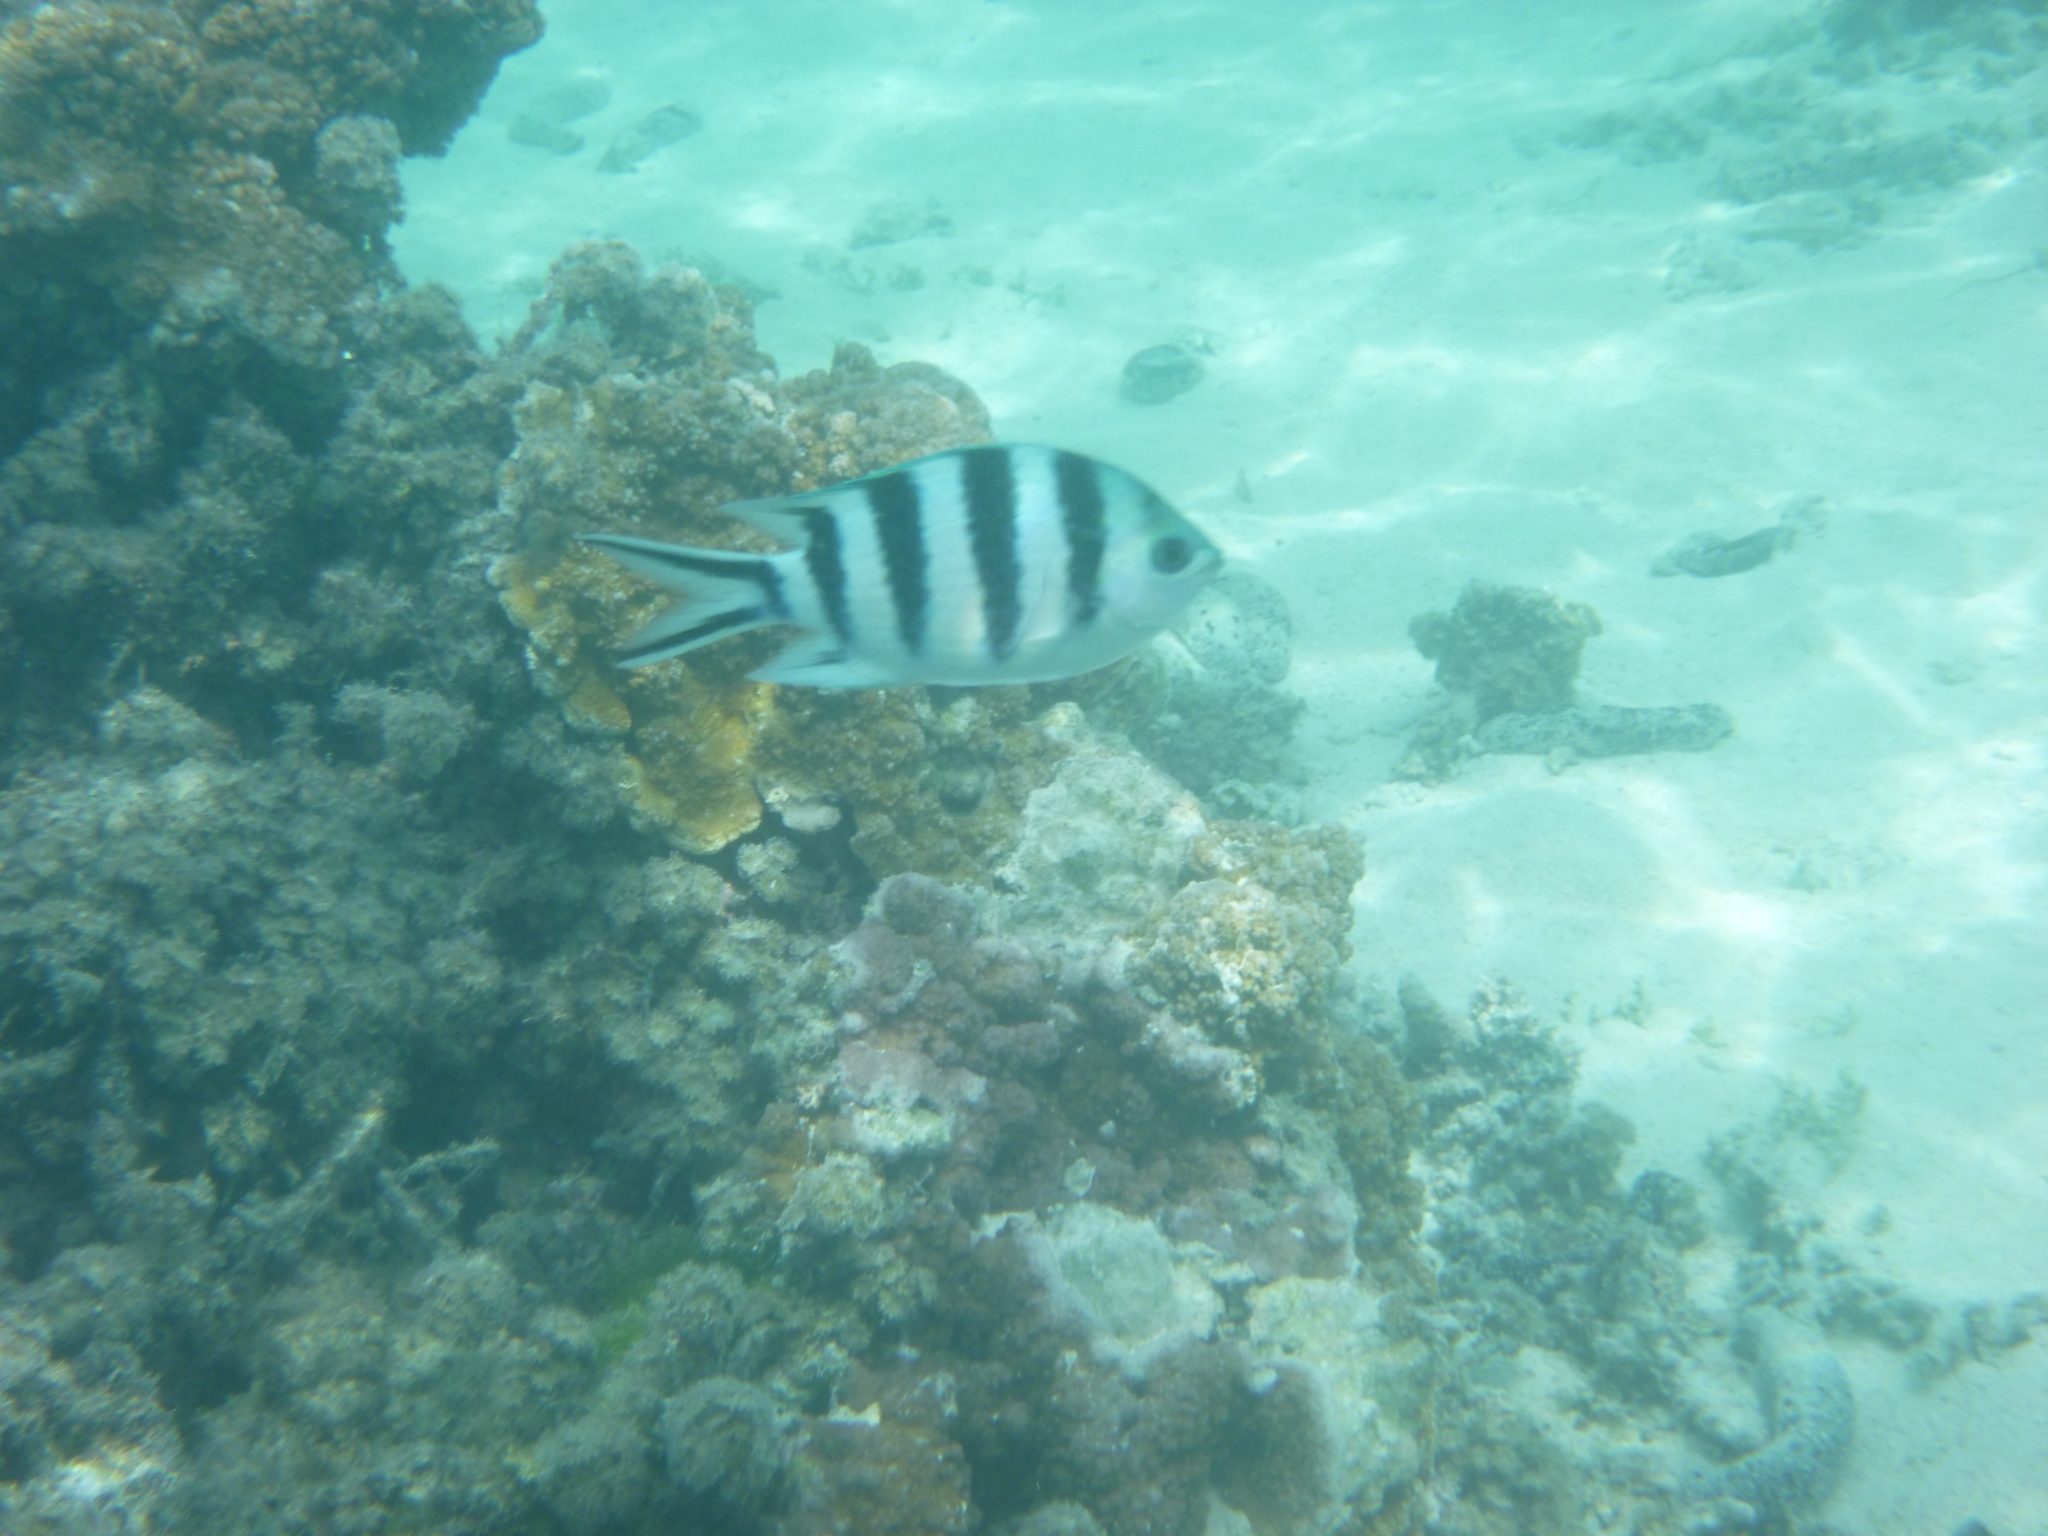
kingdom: Animalia
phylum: Chordata
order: Perciformes
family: Pomacentridae
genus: Abudefduf
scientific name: Abudefduf sexfasciatus
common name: Scissortail sergeant
